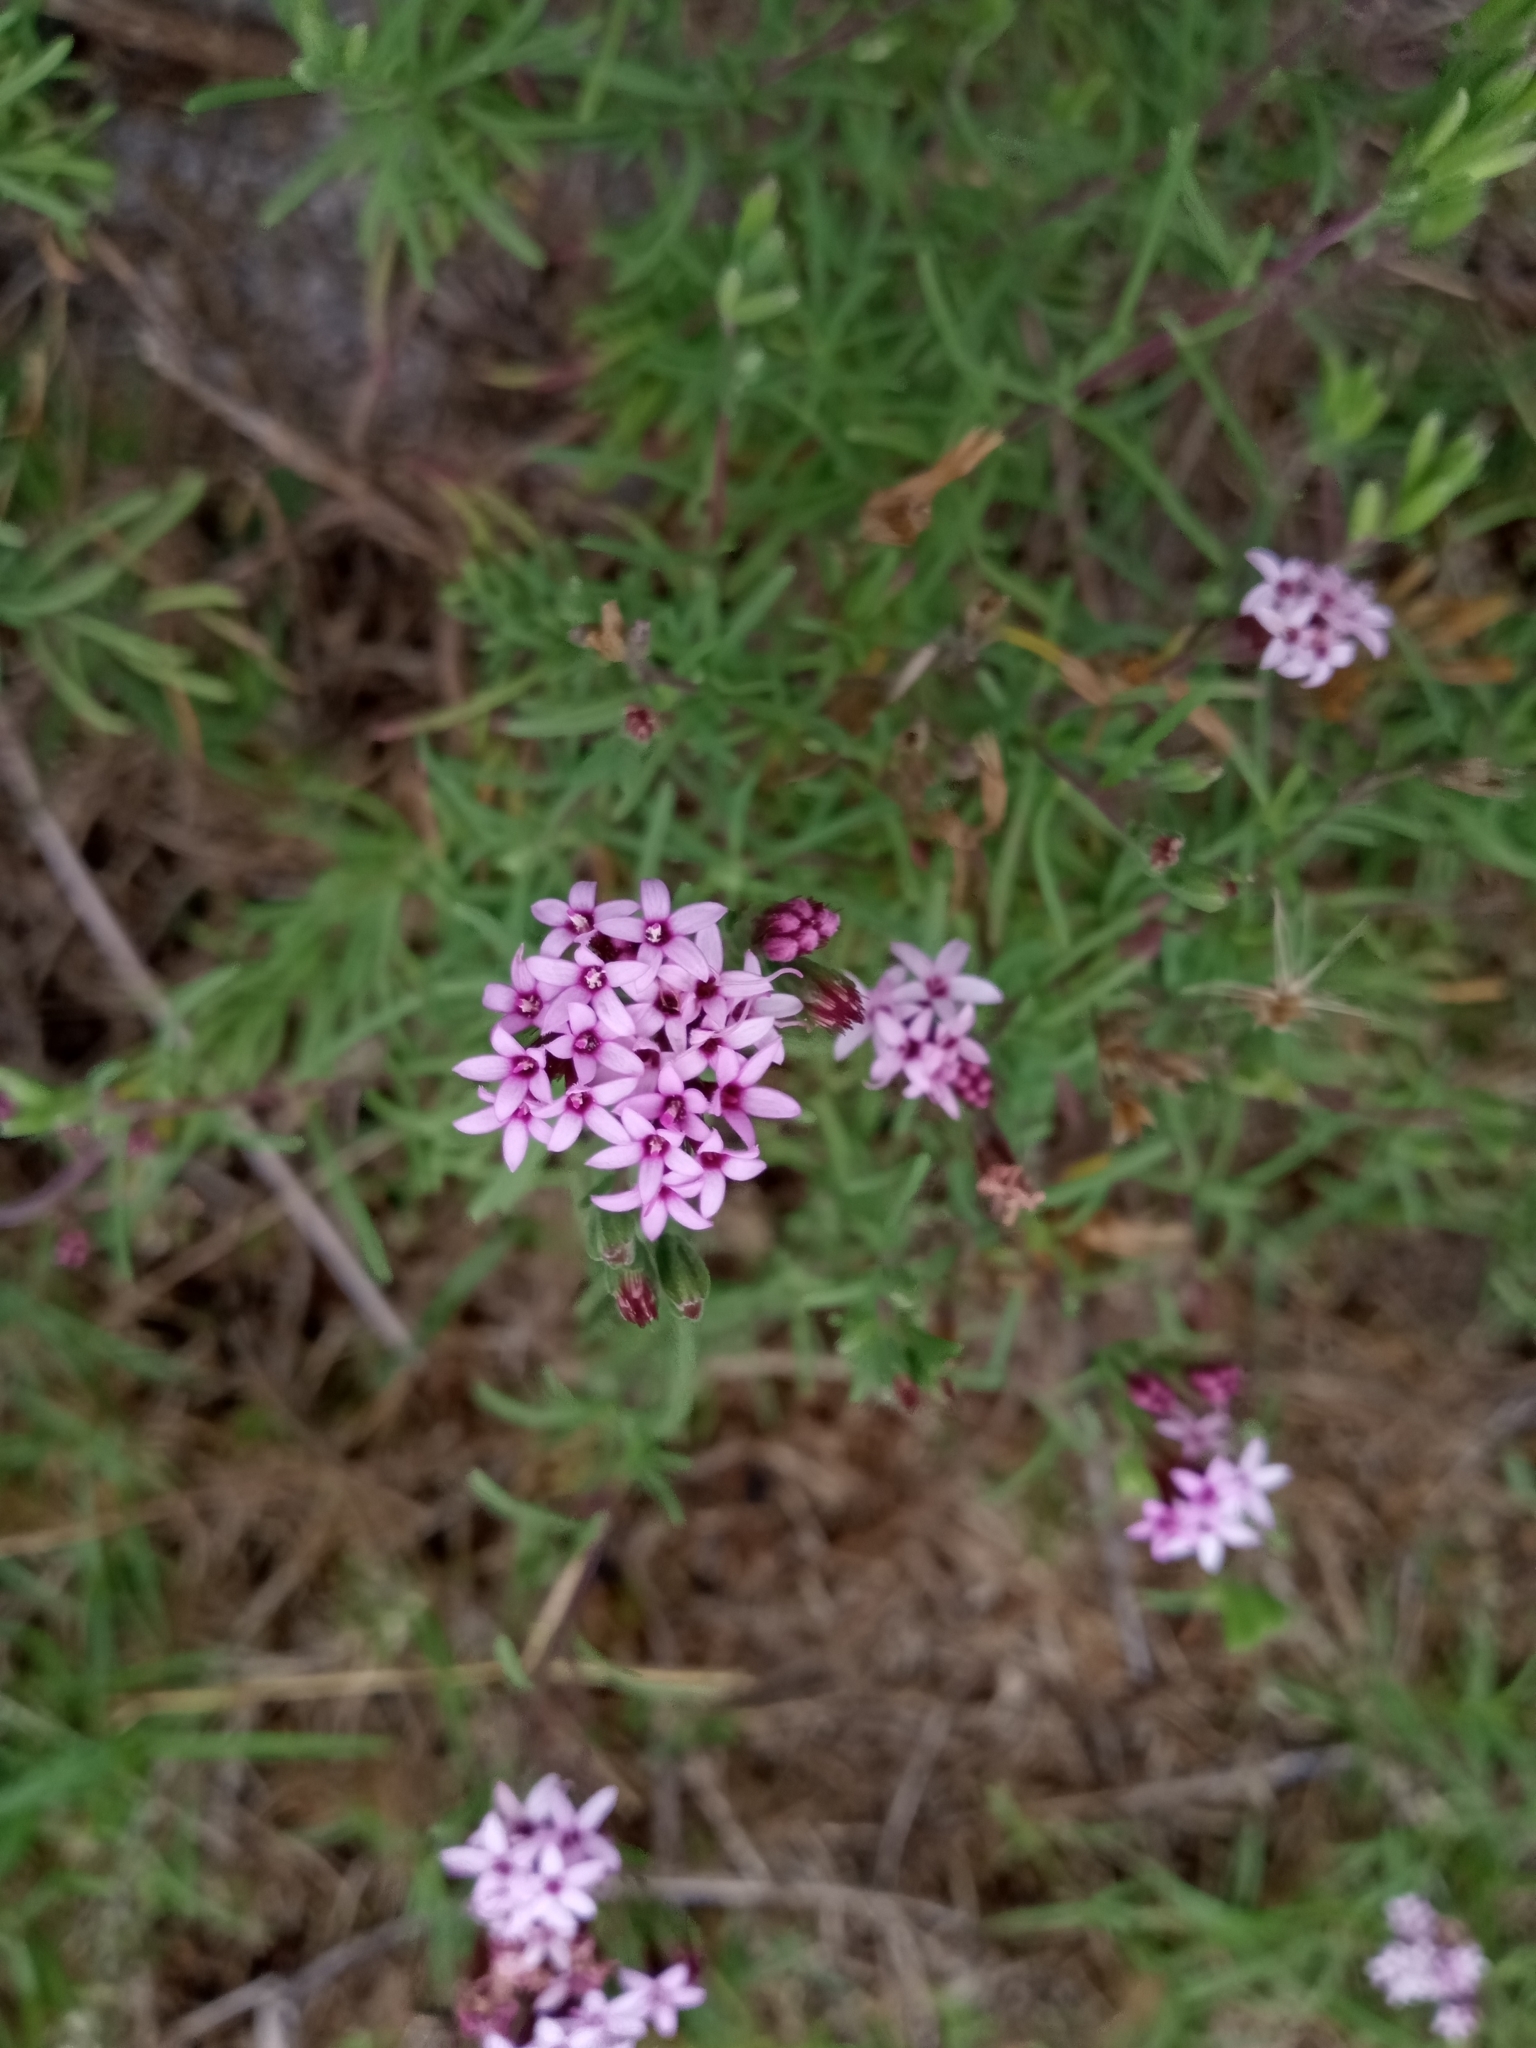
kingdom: Plantae
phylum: Tracheophyta
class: Magnoliopsida
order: Asterales
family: Asteraceae
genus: Stevia
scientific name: Stevia satureifolia
